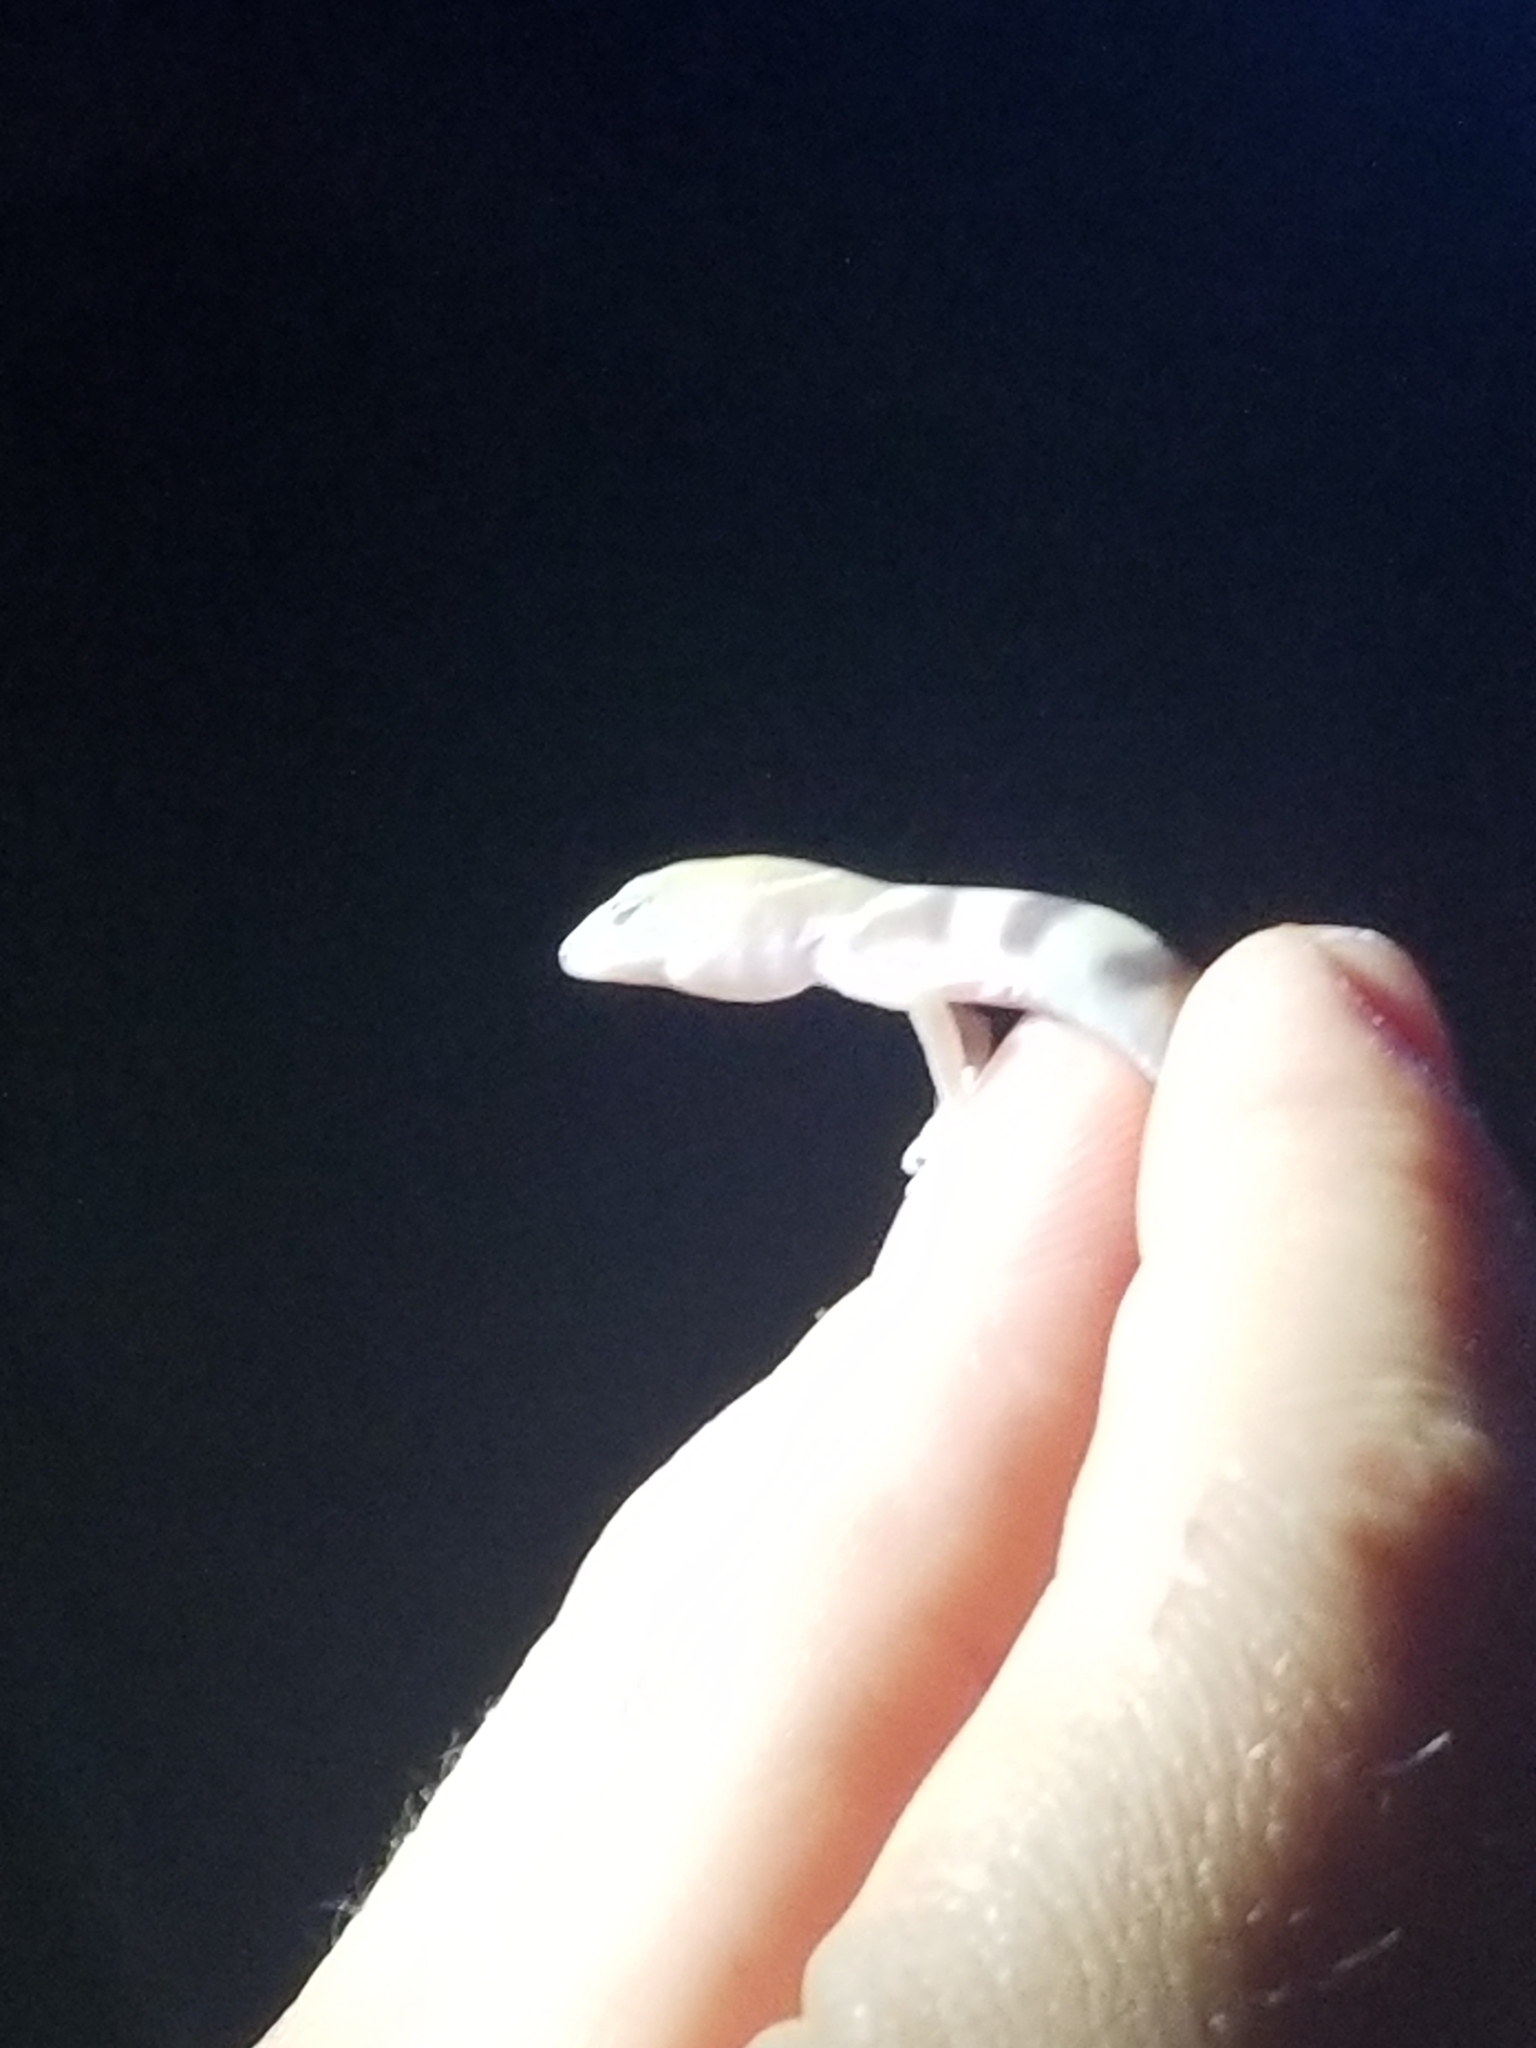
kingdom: Animalia
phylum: Chordata
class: Squamata
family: Eublepharidae
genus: Coleonyx
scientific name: Coleonyx variegatus
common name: Western banded gecko
